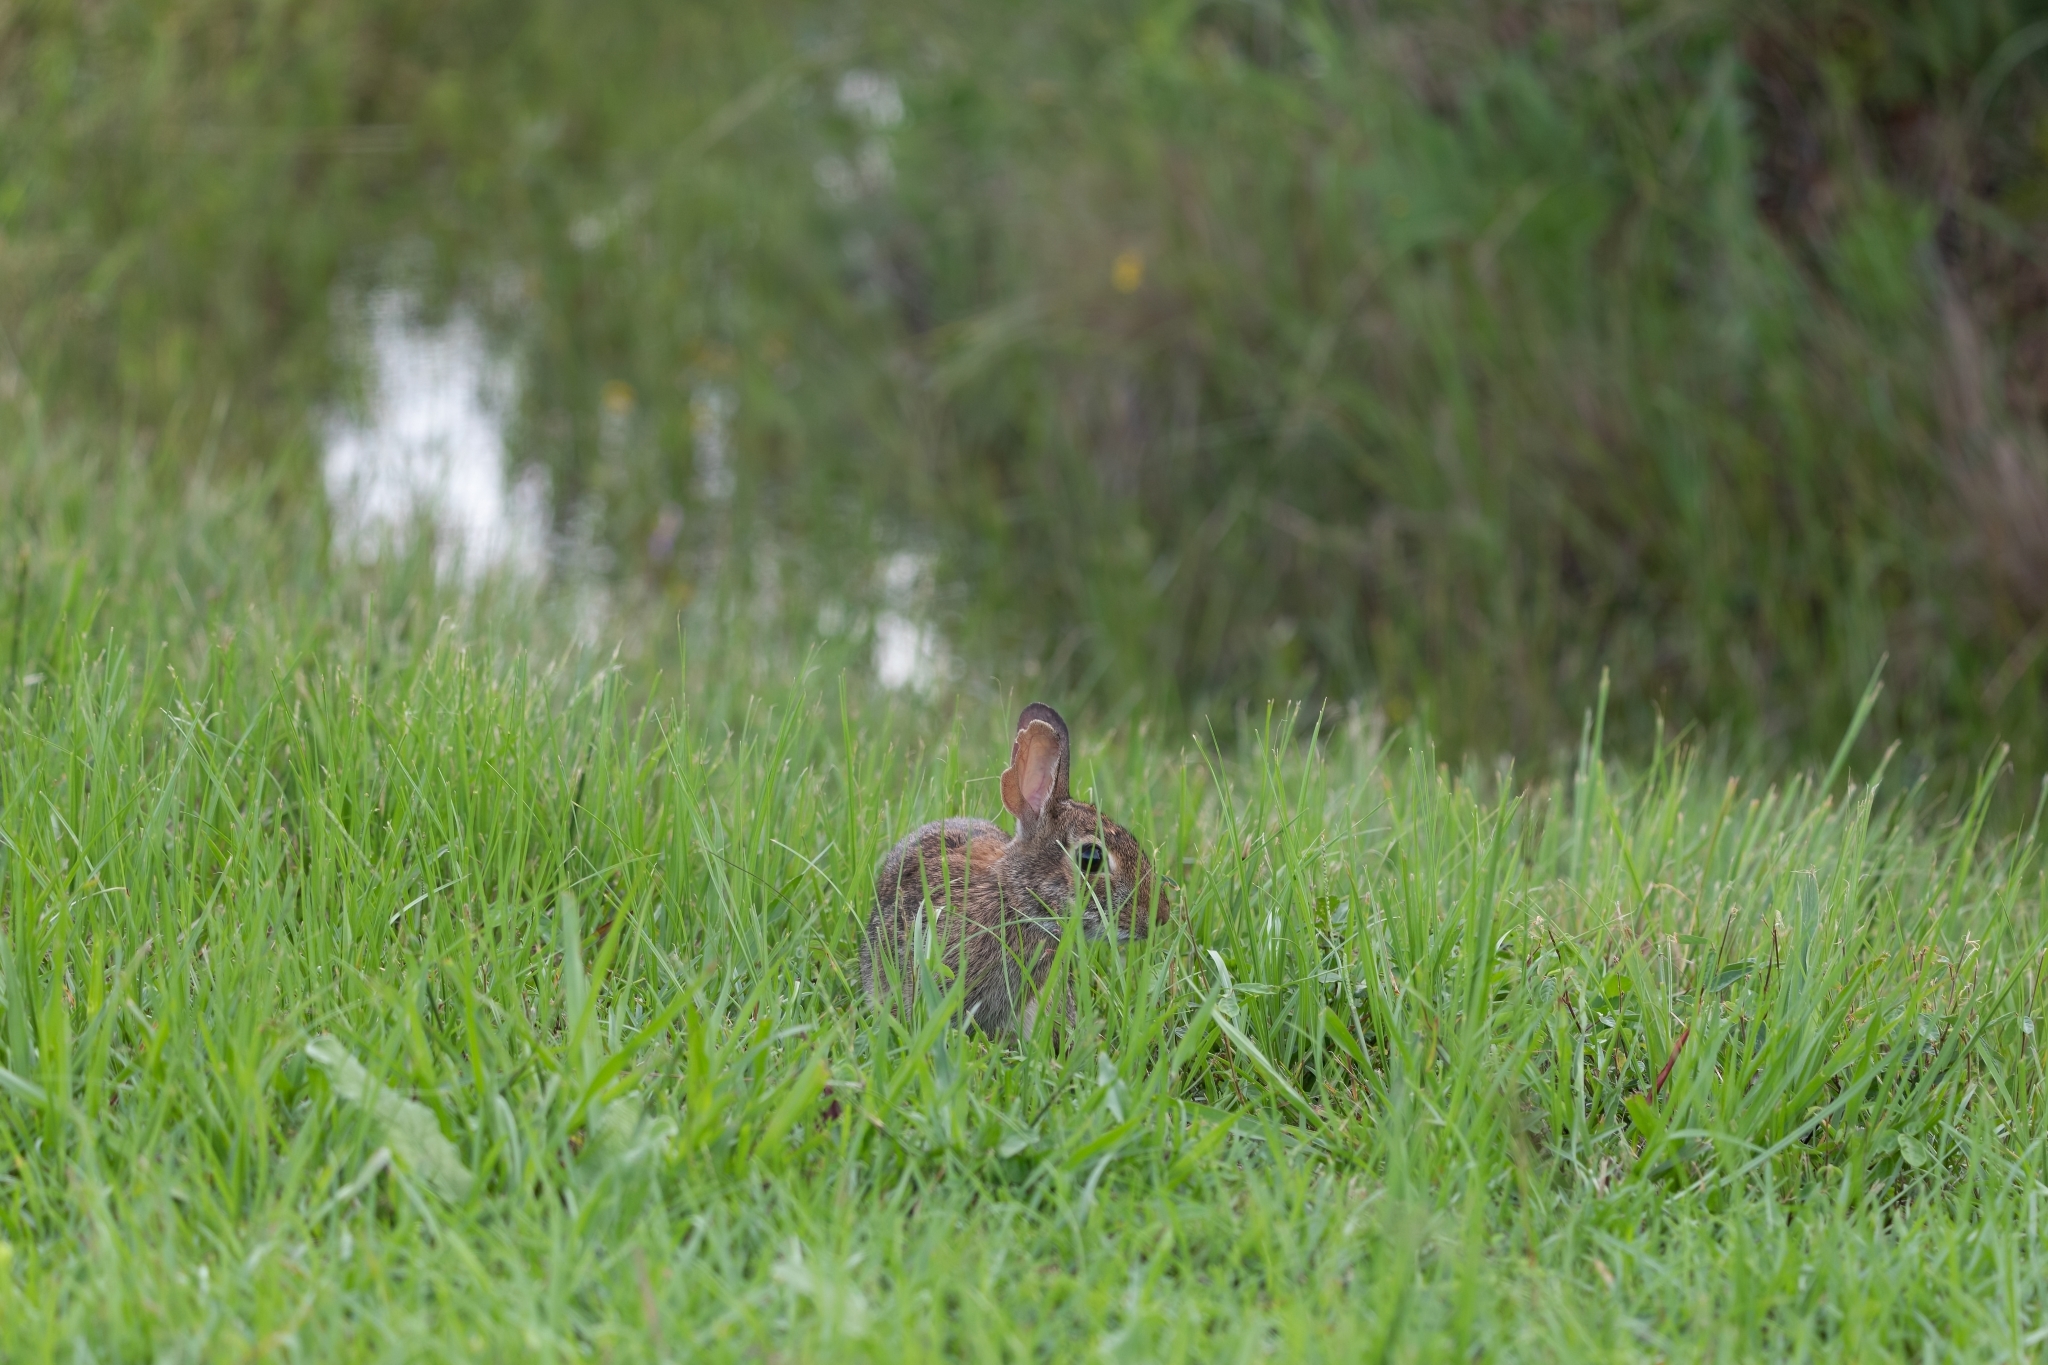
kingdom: Animalia
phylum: Chordata
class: Mammalia
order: Lagomorpha
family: Leporidae
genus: Sylvilagus
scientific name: Sylvilagus floridanus
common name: Eastern cottontail
